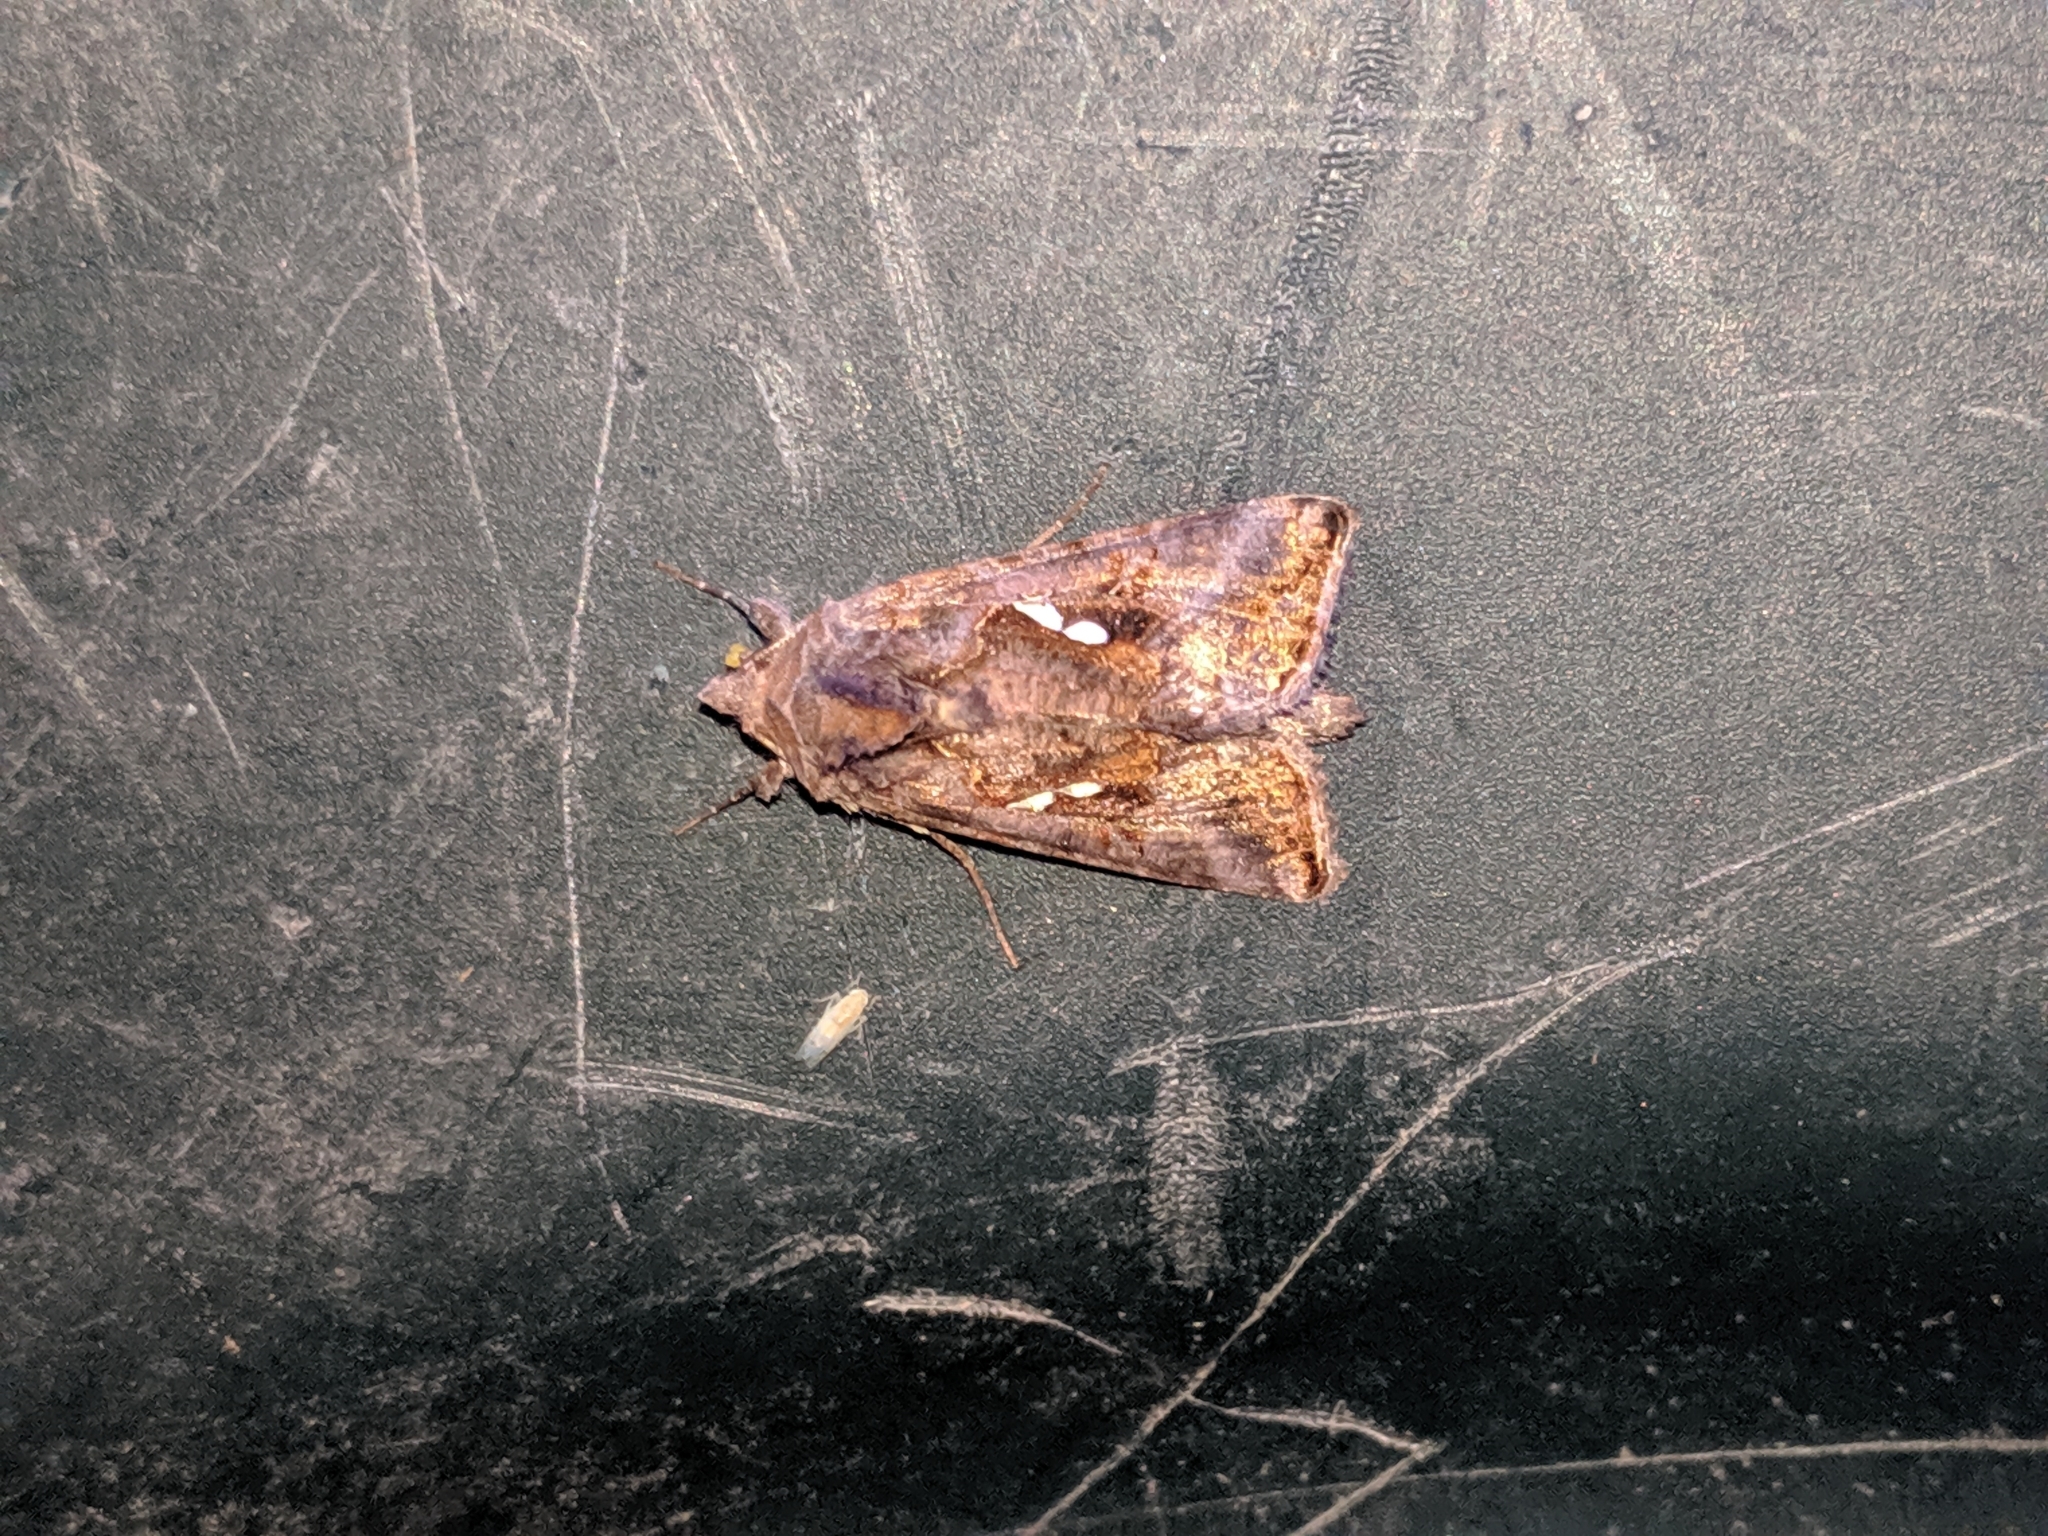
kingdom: Animalia
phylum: Arthropoda
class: Insecta
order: Lepidoptera
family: Noctuidae
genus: Autographa
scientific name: Autographa precationis
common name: Common looper moth
